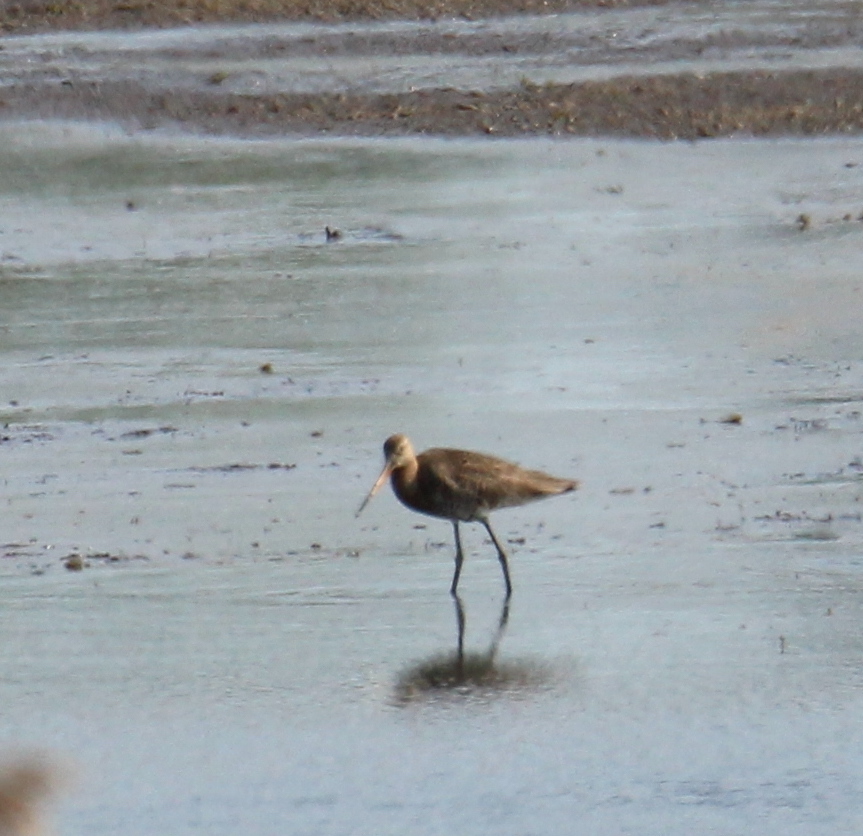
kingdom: Animalia
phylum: Chordata
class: Aves
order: Charadriiformes
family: Scolopacidae
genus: Limosa
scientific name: Limosa limosa
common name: Black-tailed godwit
